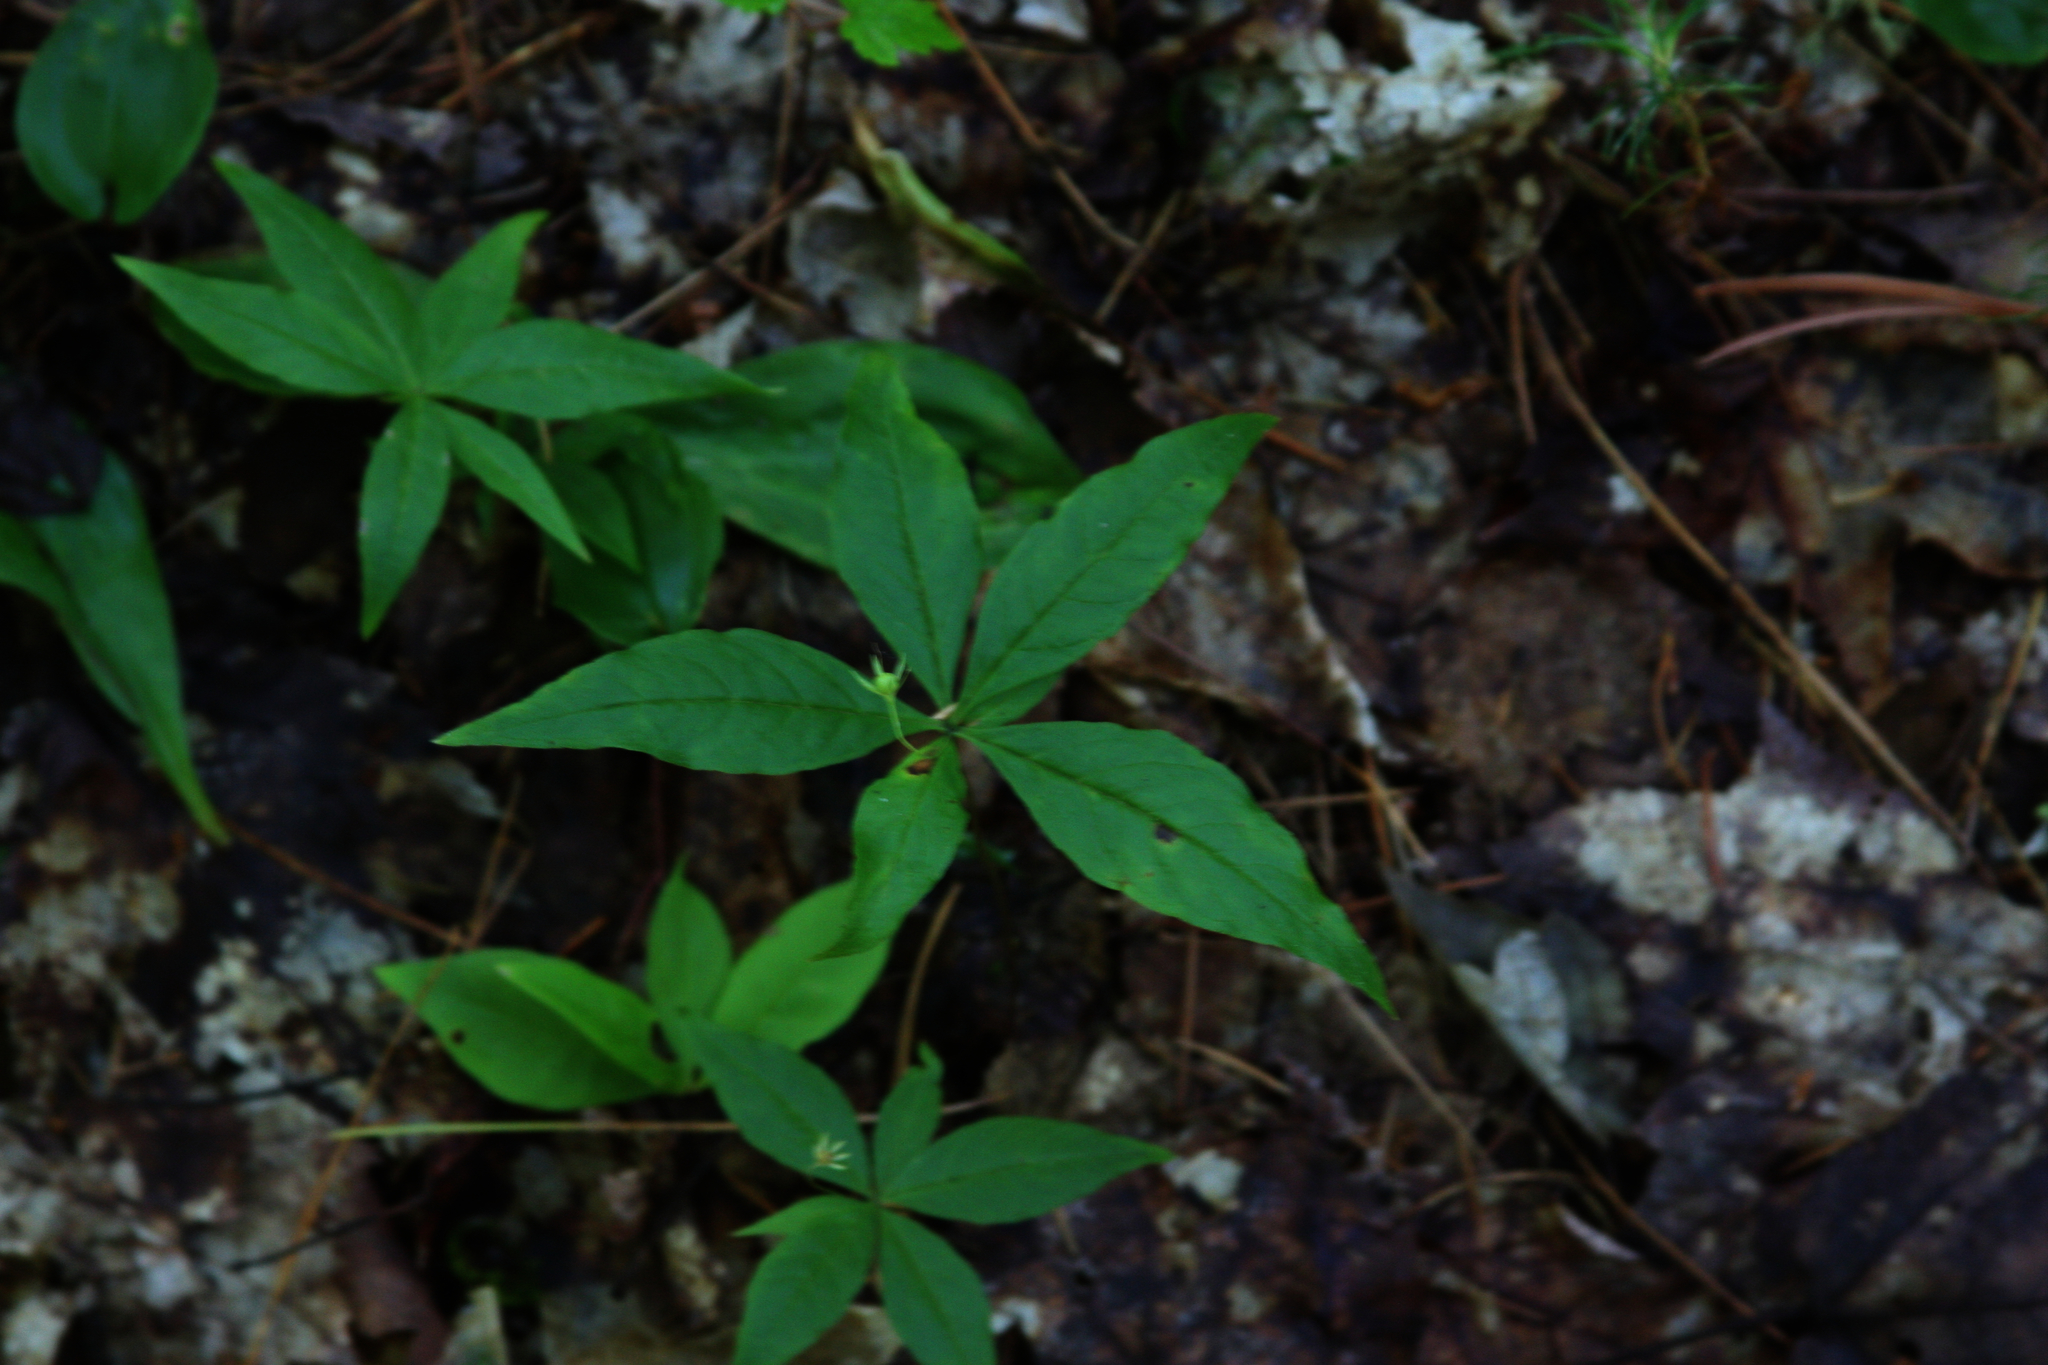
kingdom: Plantae
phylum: Tracheophyta
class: Magnoliopsida
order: Ericales
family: Primulaceae
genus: Lysimachia
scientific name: Lysimachia borealis
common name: American starflower
